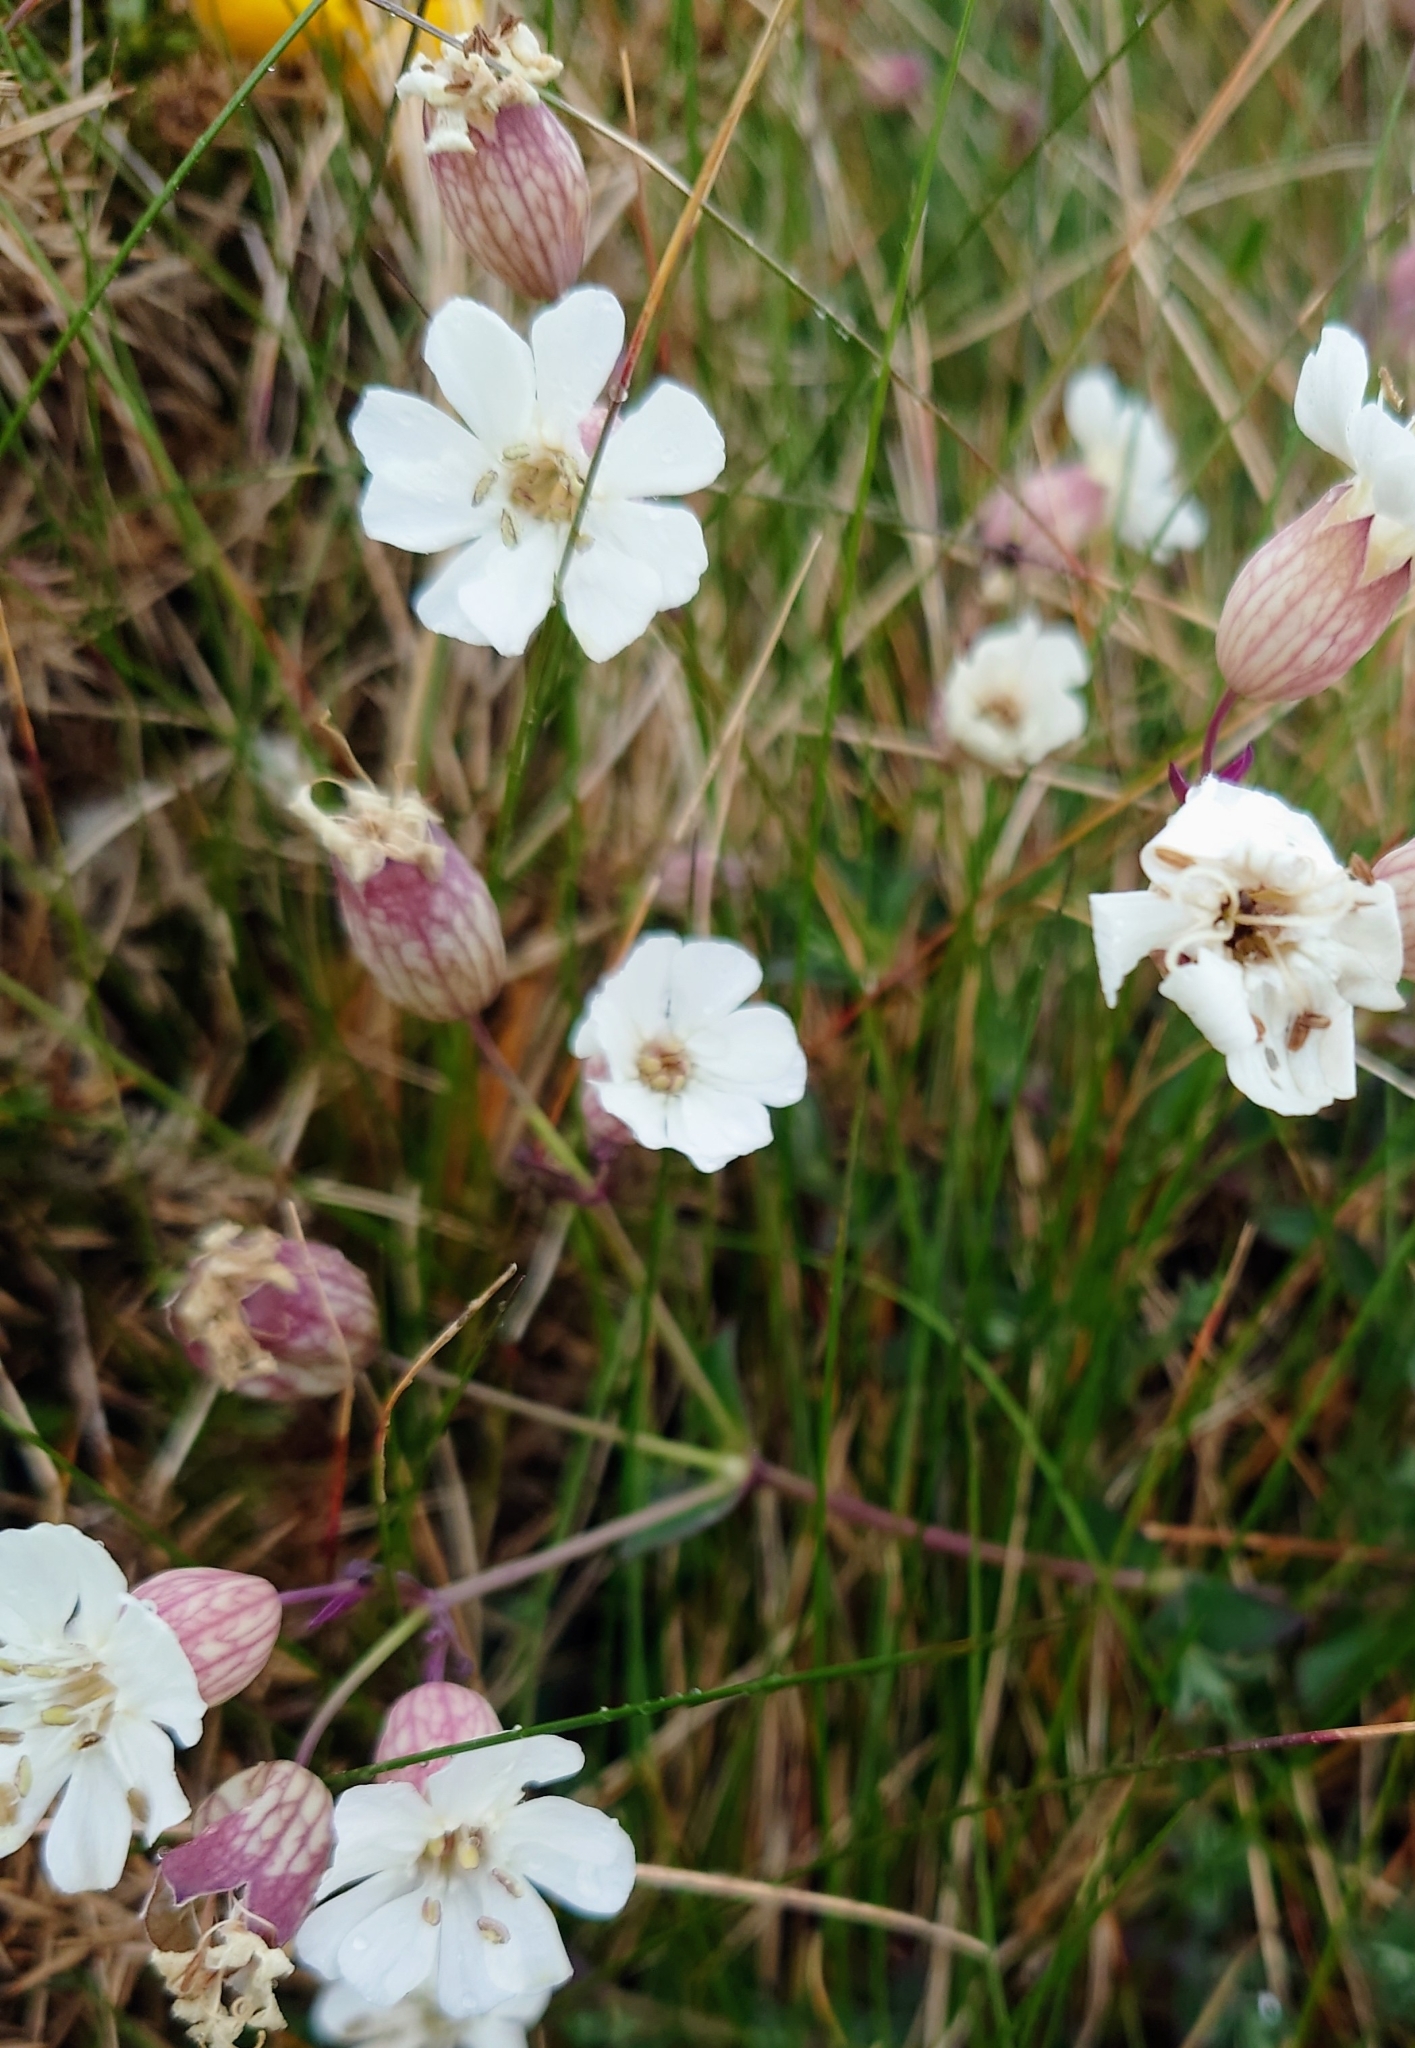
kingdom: Plantae
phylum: Tracheophyta
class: Magnoliopsida
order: Caryophyllales
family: Caryophyllaceae
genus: Silene
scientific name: Silene uniflora
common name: Sea campion
